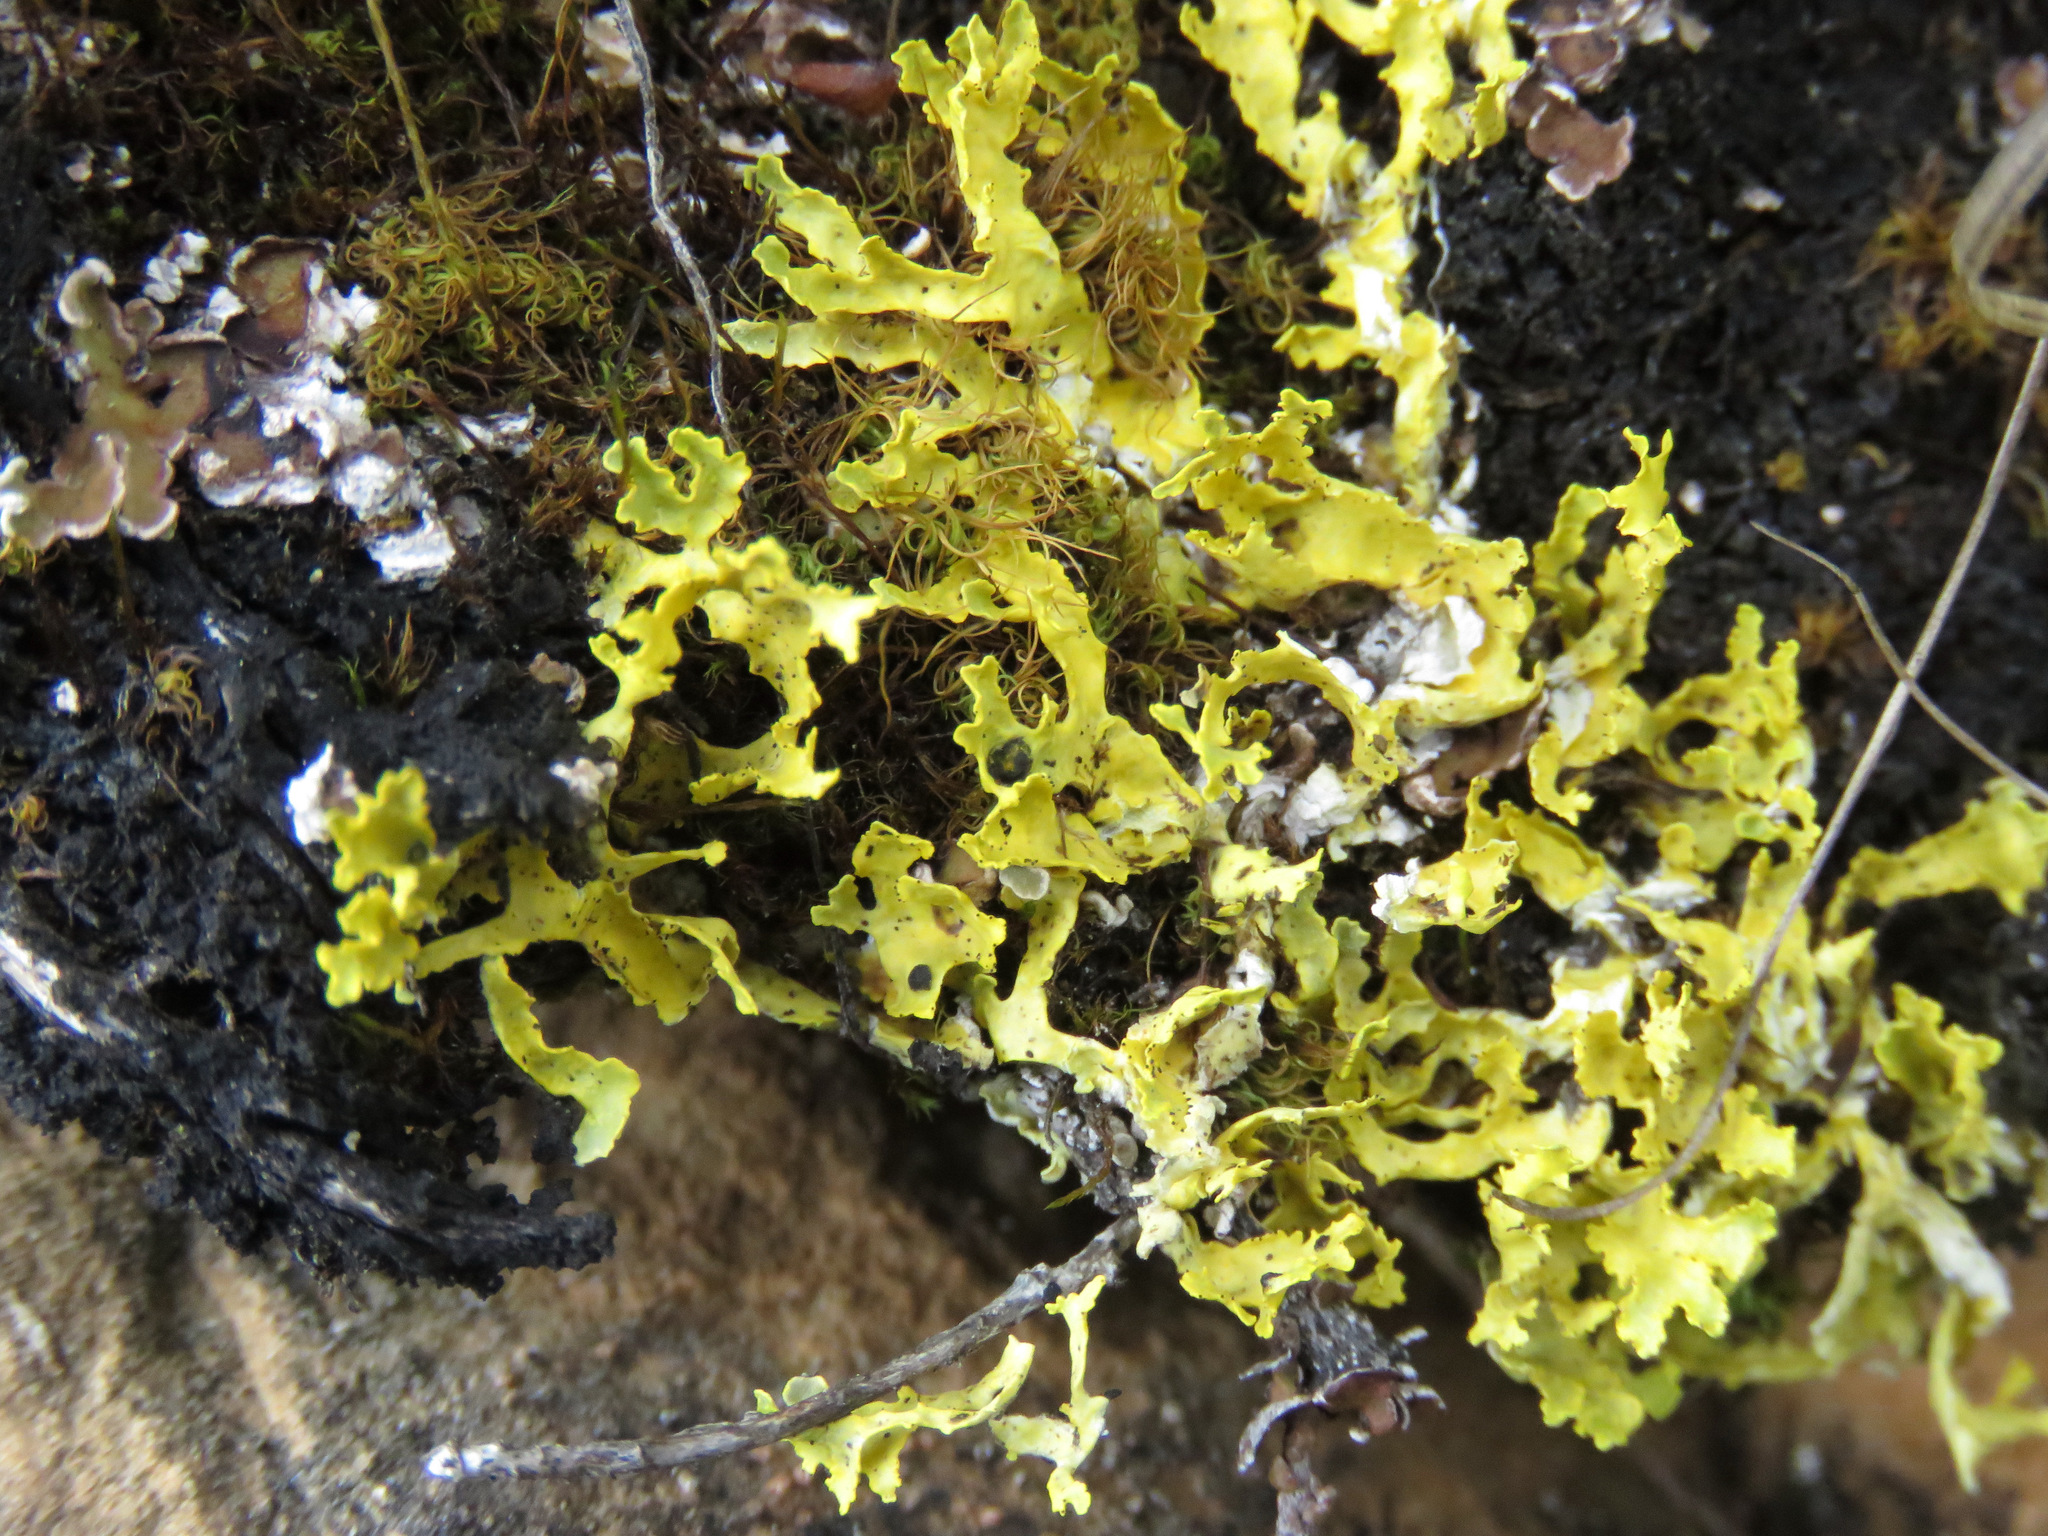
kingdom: Fungi
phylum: Ascomycota
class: Lecanoromycetes
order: Lecanorales
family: Parmeliaceae
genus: Vulpicida
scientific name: Vulpicida juniperinus
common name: Yellow lichen
